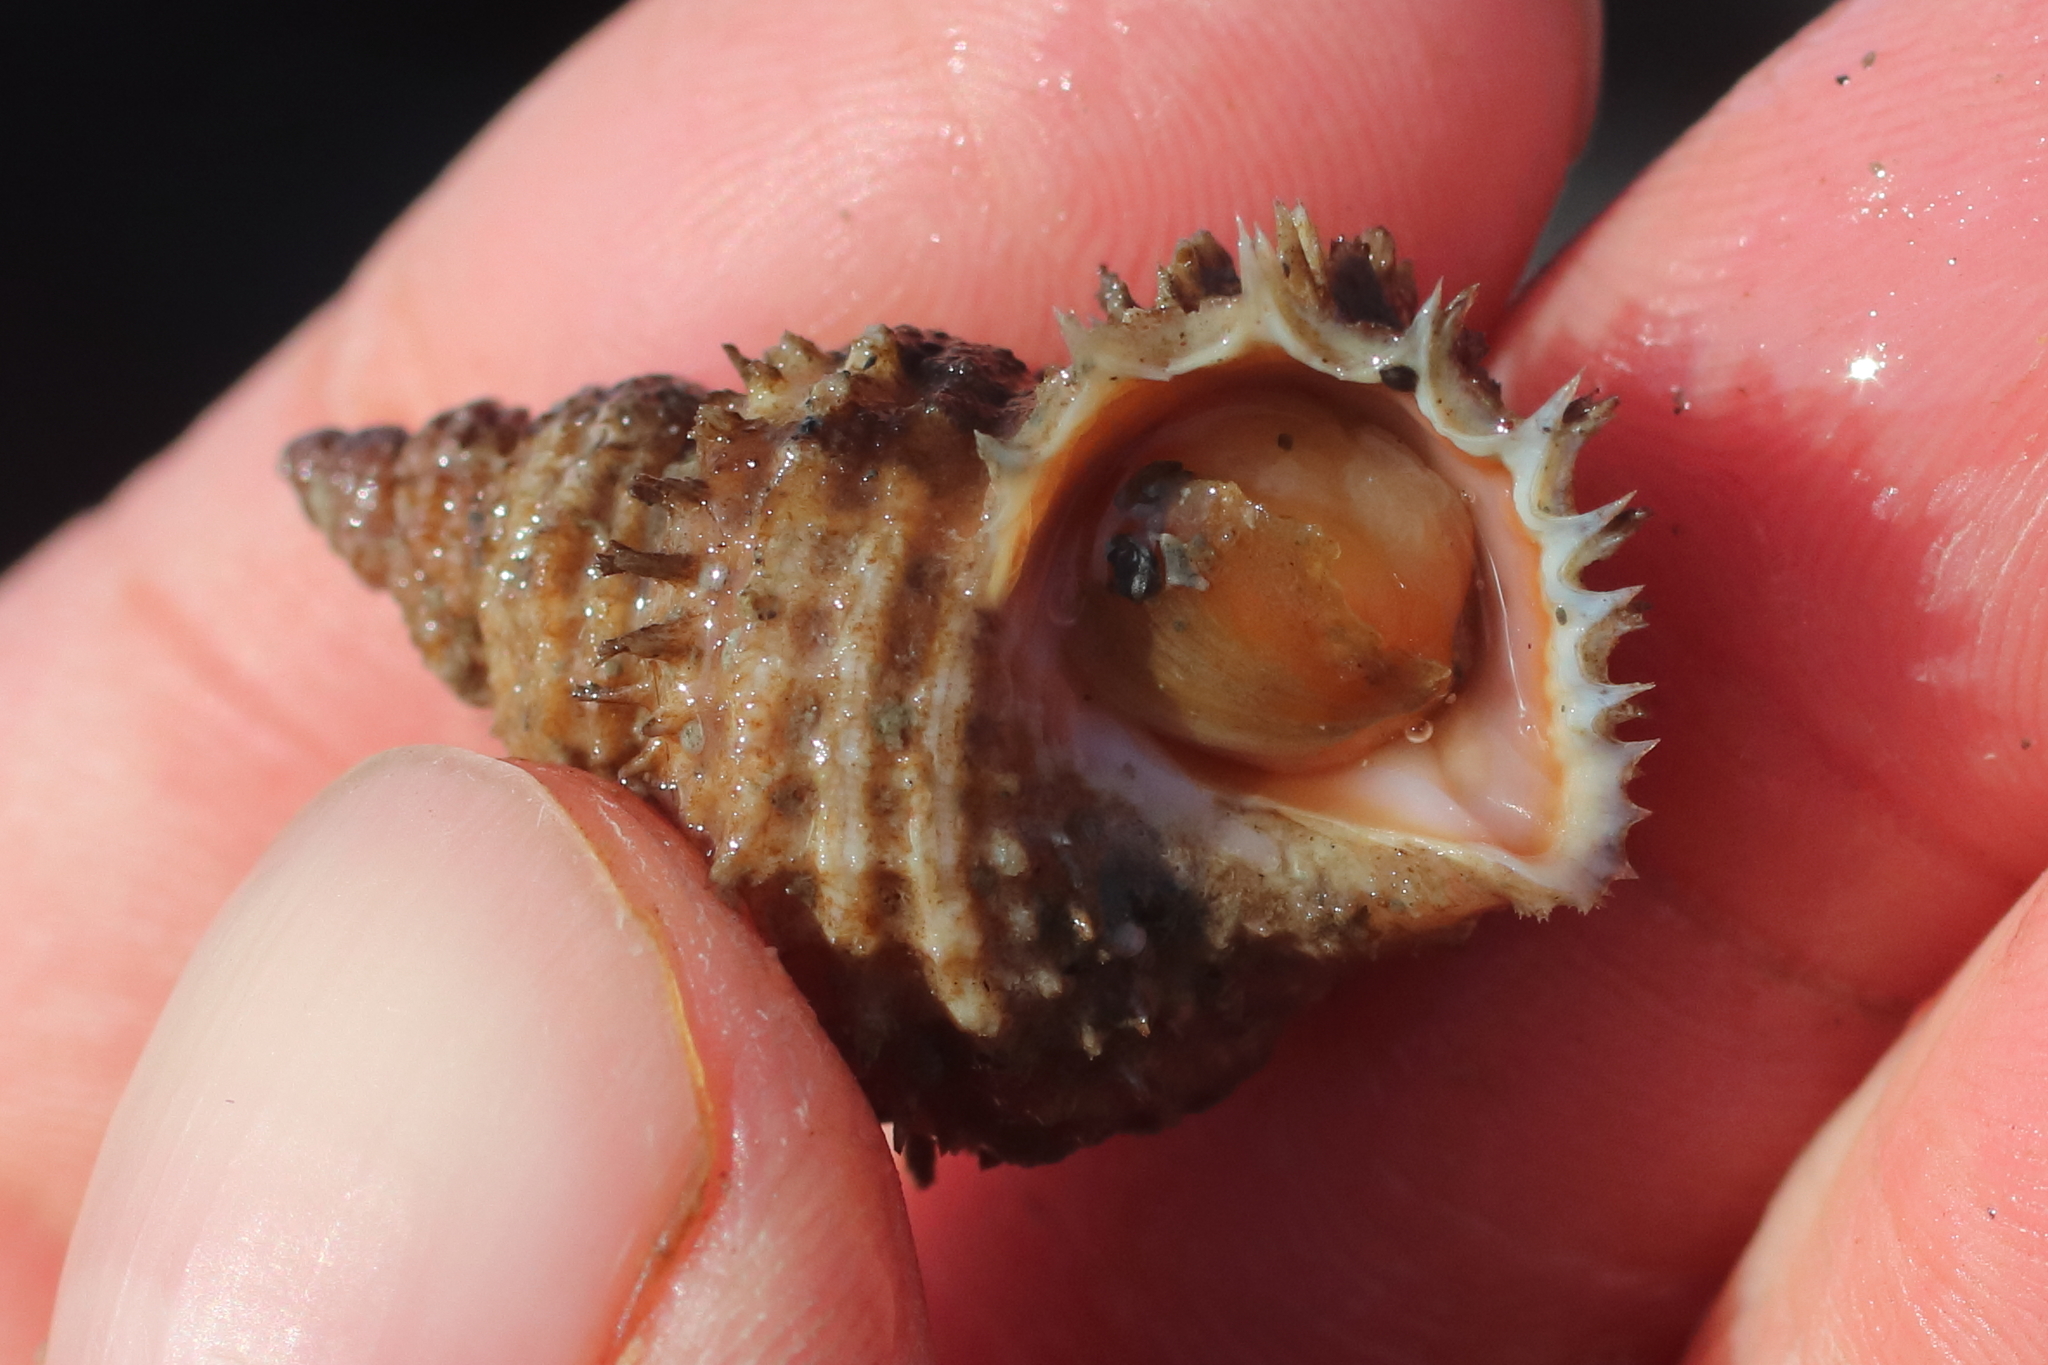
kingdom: Animalia
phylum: Mollusca
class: Gastropoda
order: Littorinimorpha
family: Capulidae
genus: Trichotropis
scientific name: Trichotropis cancellata
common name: Cancellate hairysnail
